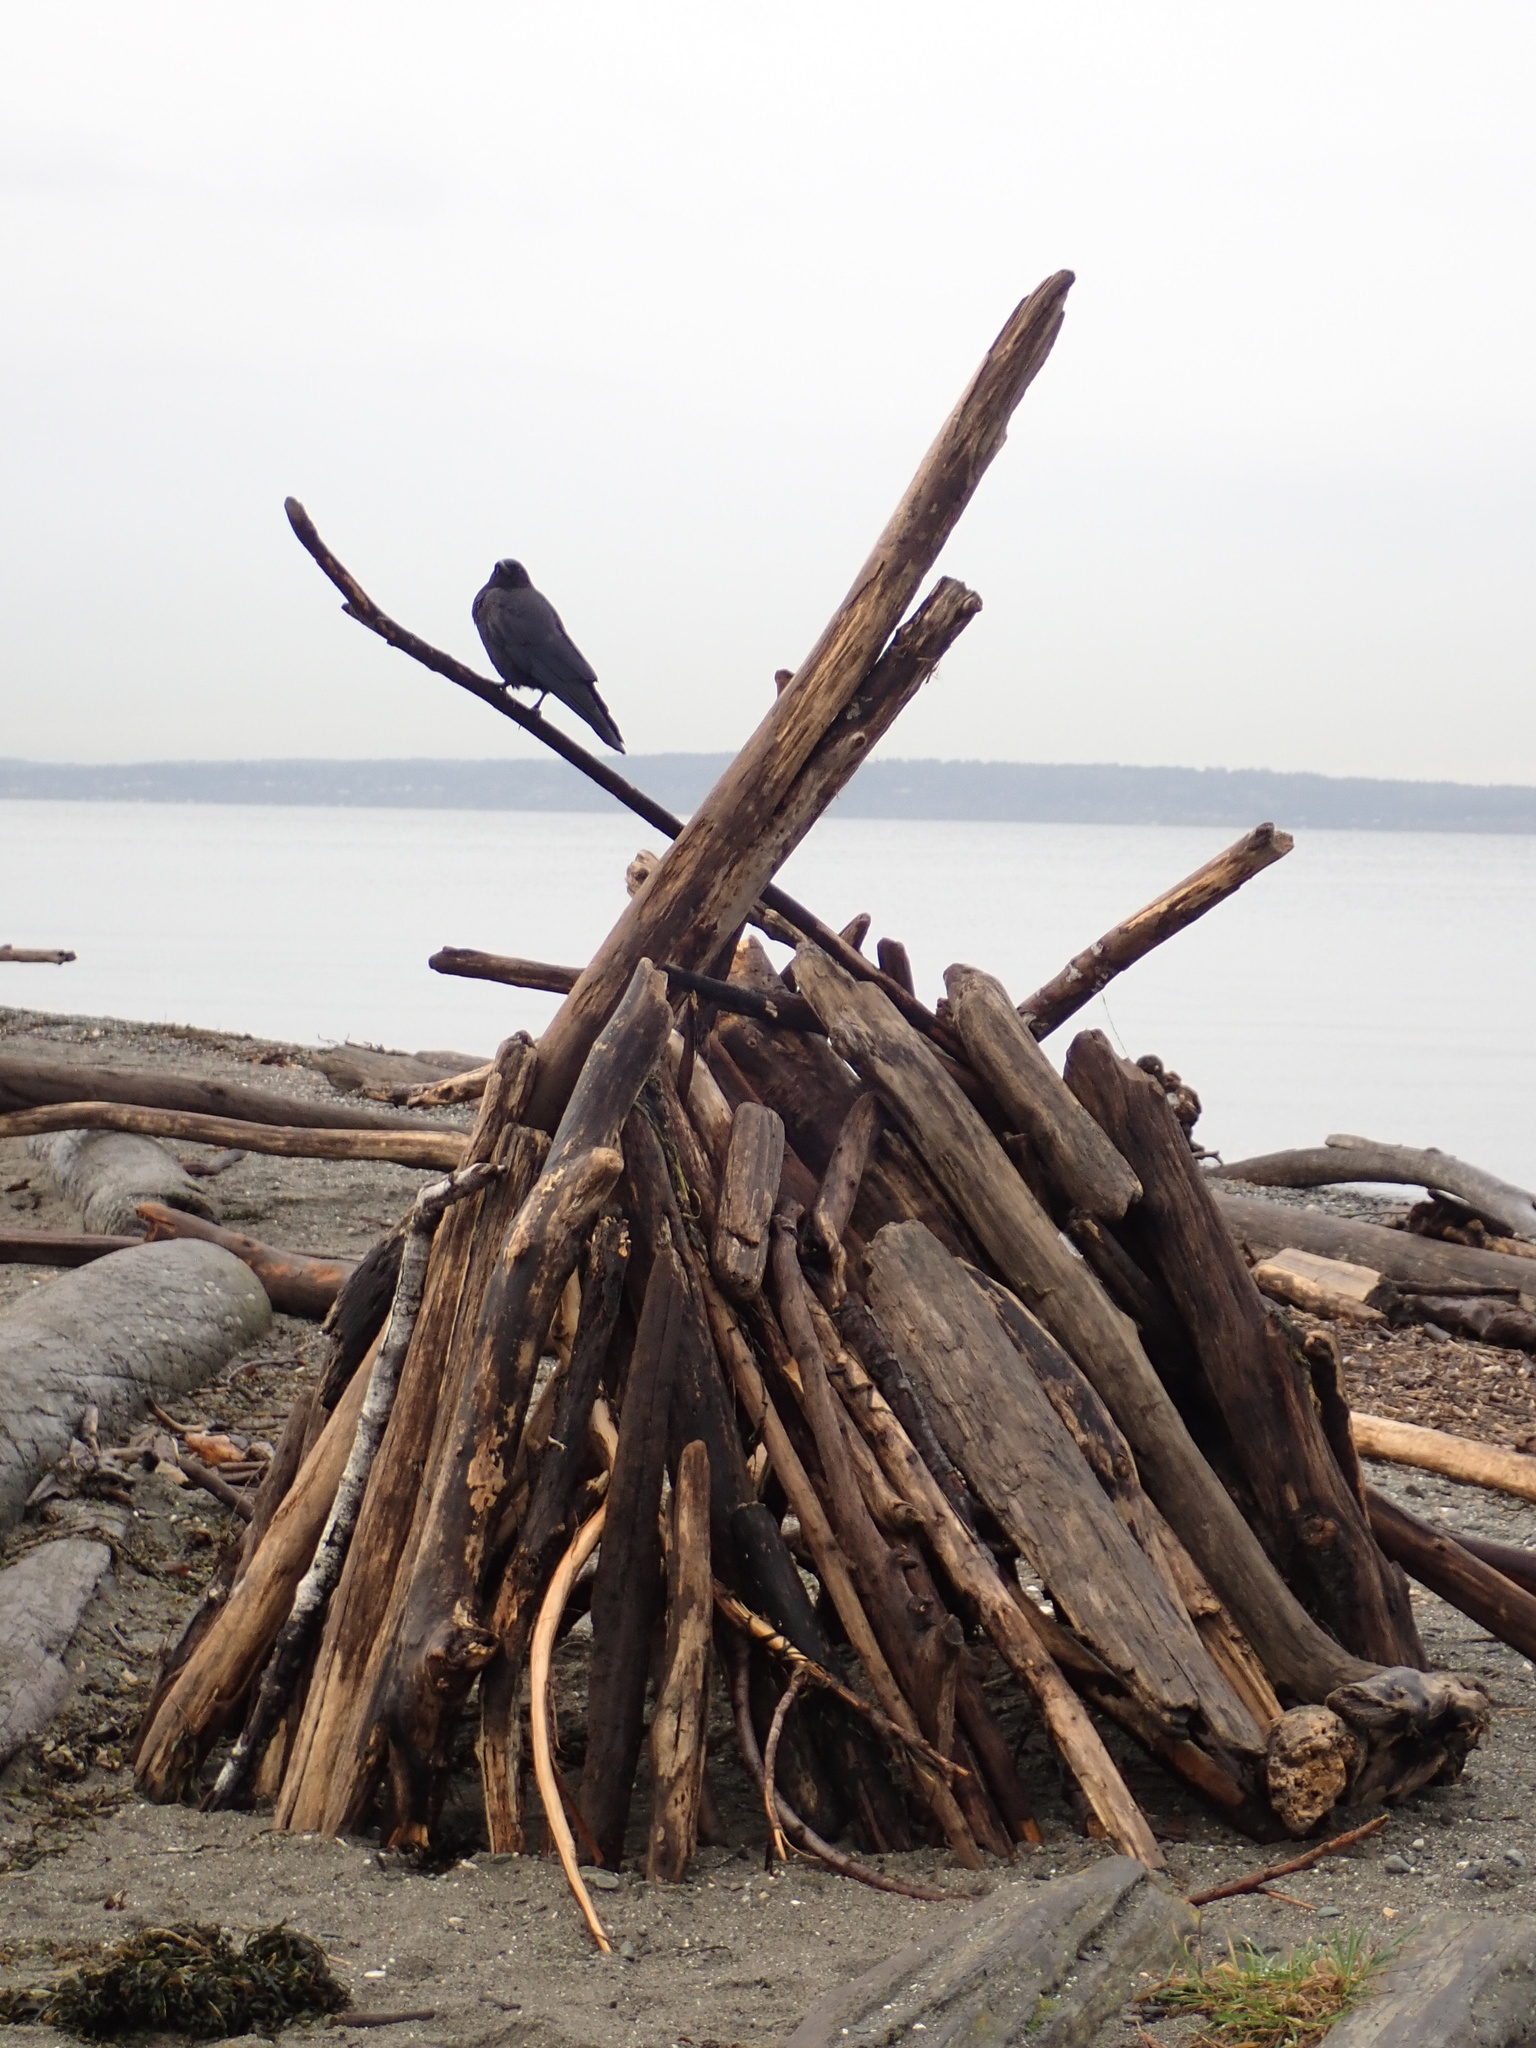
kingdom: Animalia
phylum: Chordata
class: Aves
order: Passeriformes
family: Corvidae
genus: Corvus
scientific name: Corvus brachyrhynchos
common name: American crow
